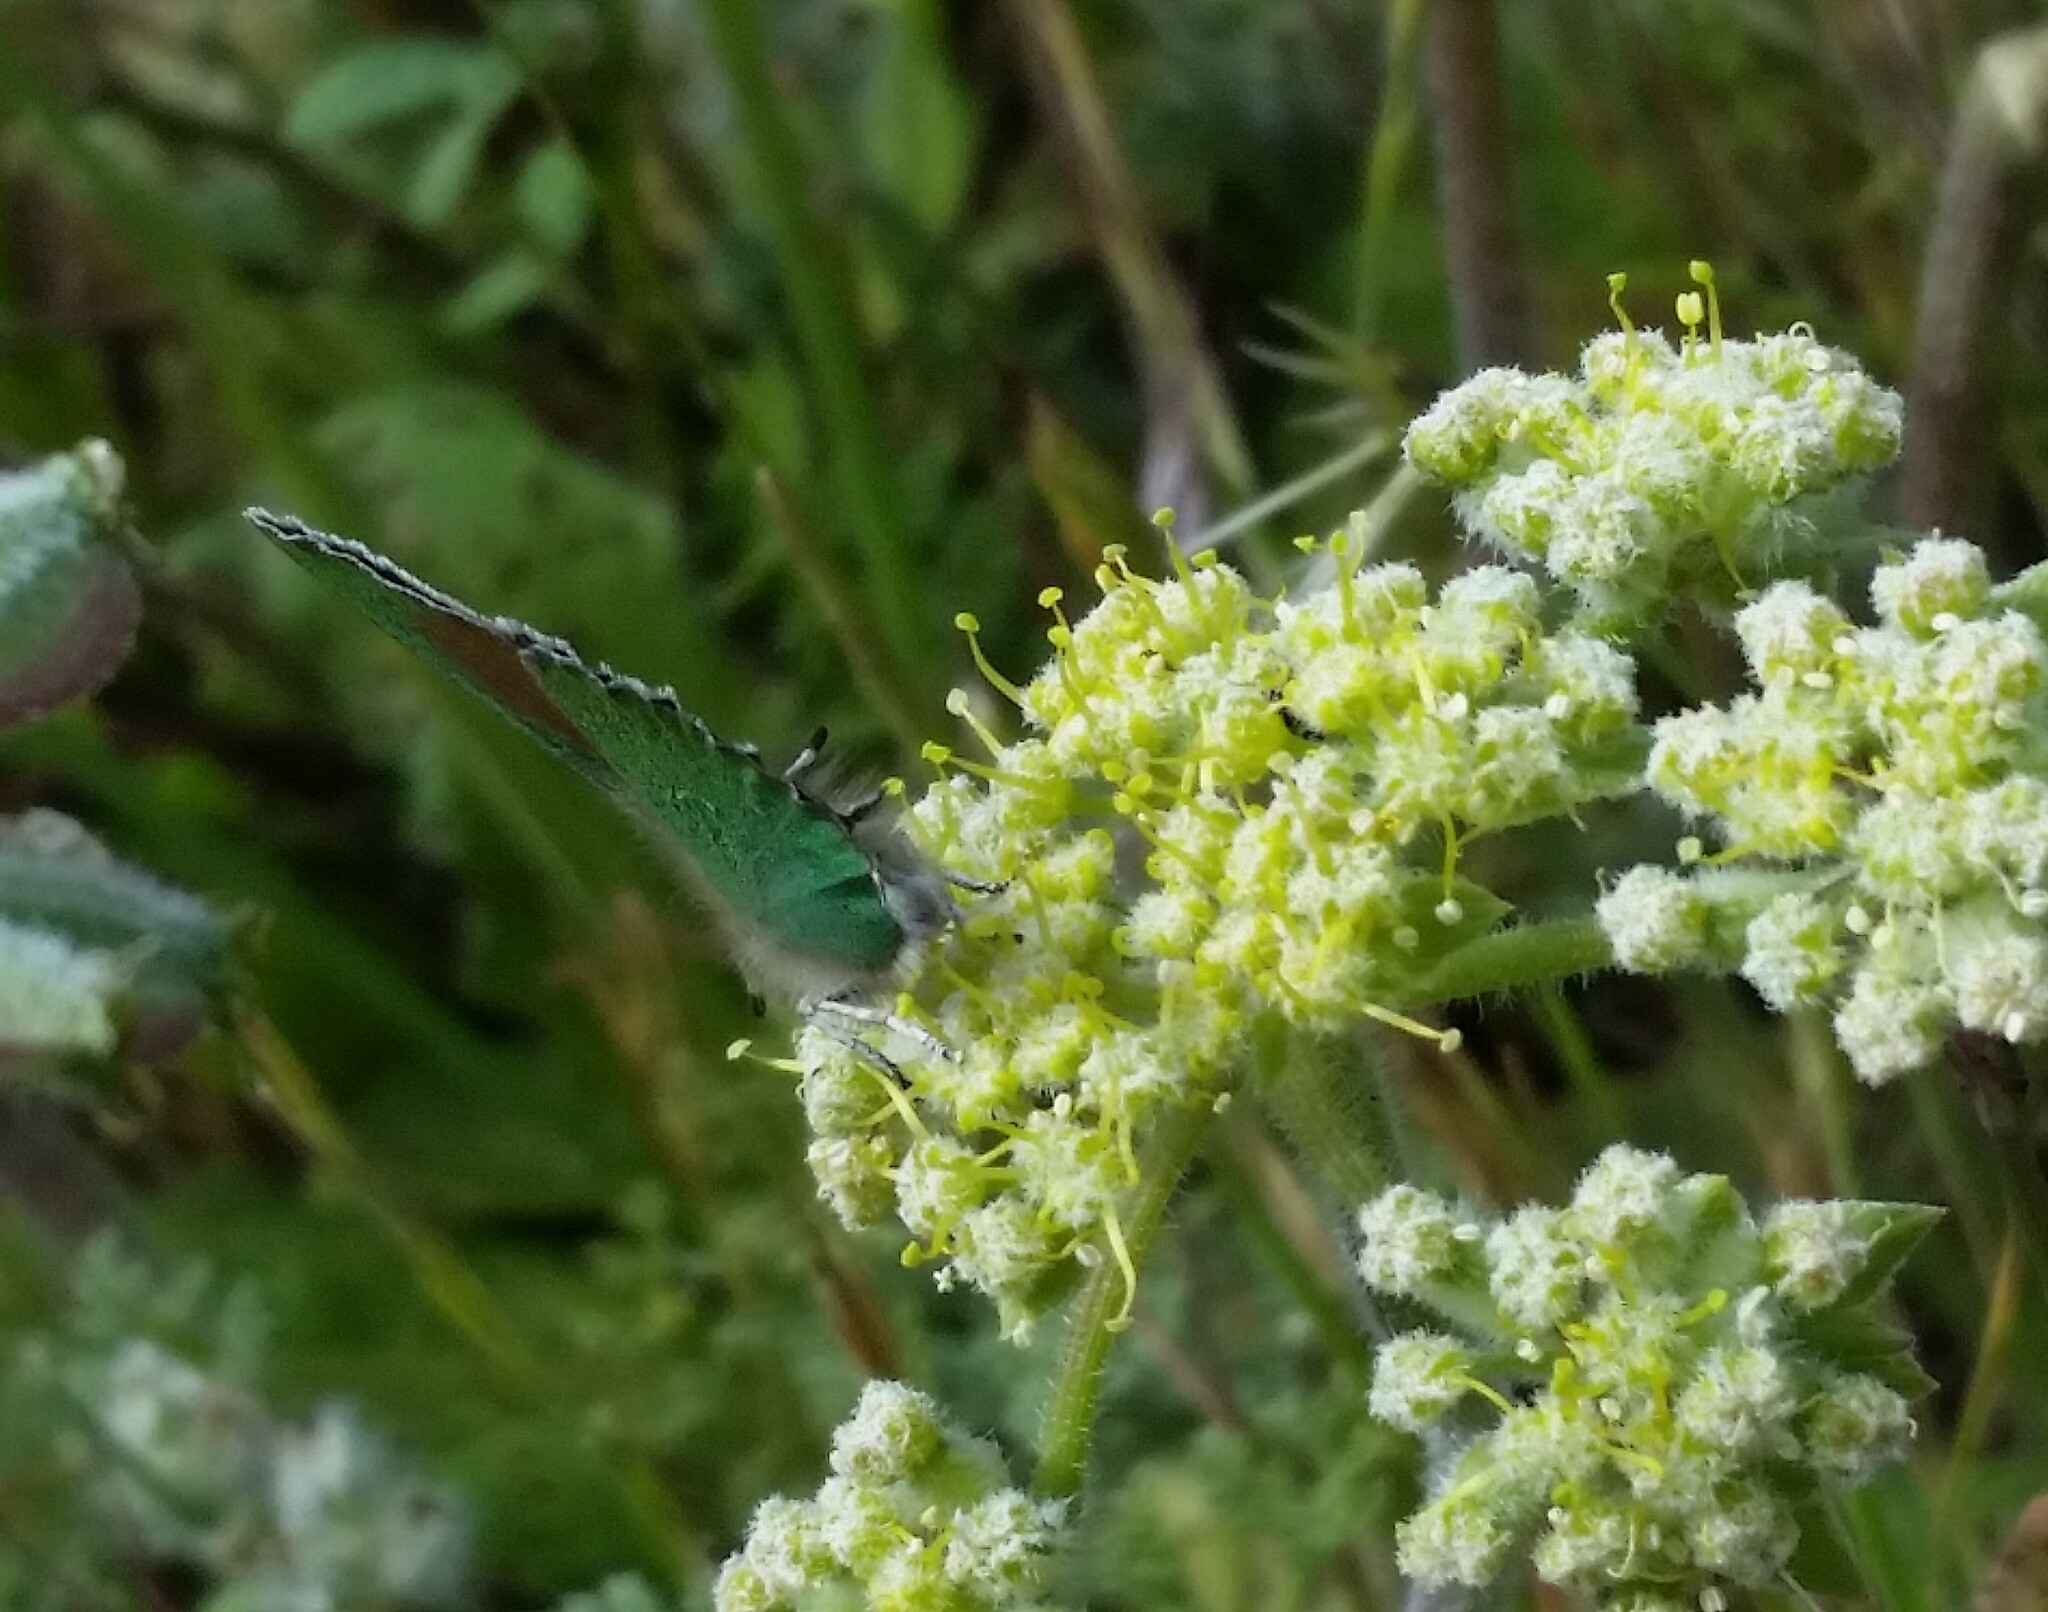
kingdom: Animalia
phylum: Arthropoda
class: Insecta
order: Lepidoptera
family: Lycaenidae
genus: Callophrys
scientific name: Callophrys dumetorum
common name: Bramble hairstreak
